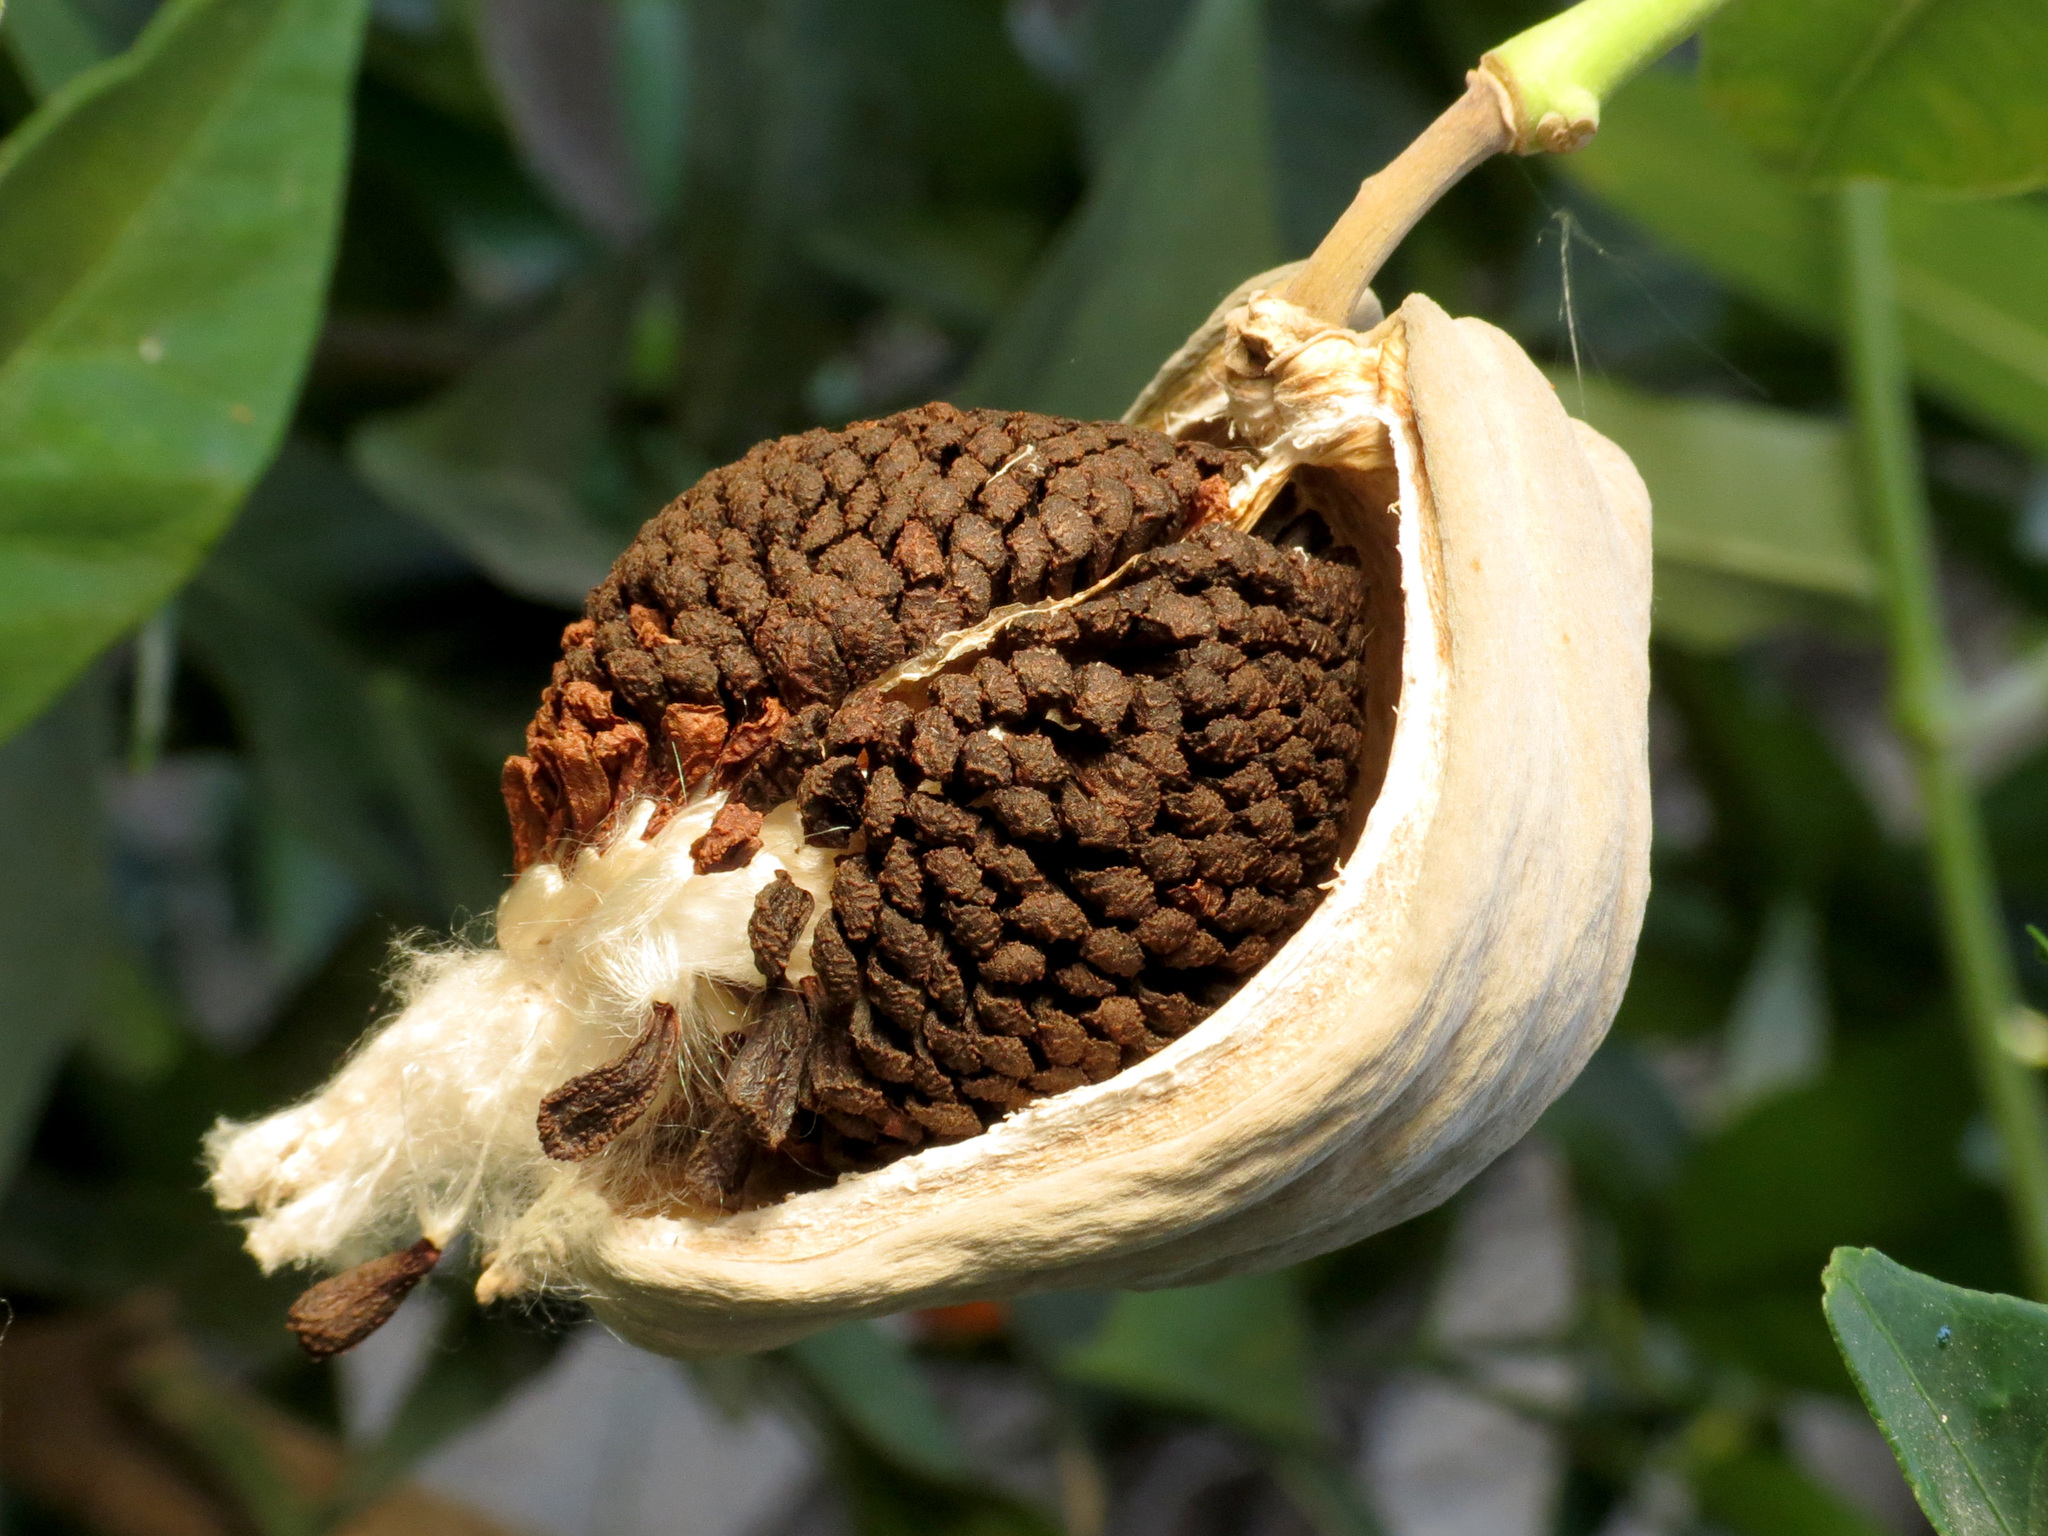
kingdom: Plantae
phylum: Tracheophyta
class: Magnoliopsida
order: Gentianales
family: Apocynaceae
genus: Araujia
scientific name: Araujia sericifera
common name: White bladderflower
